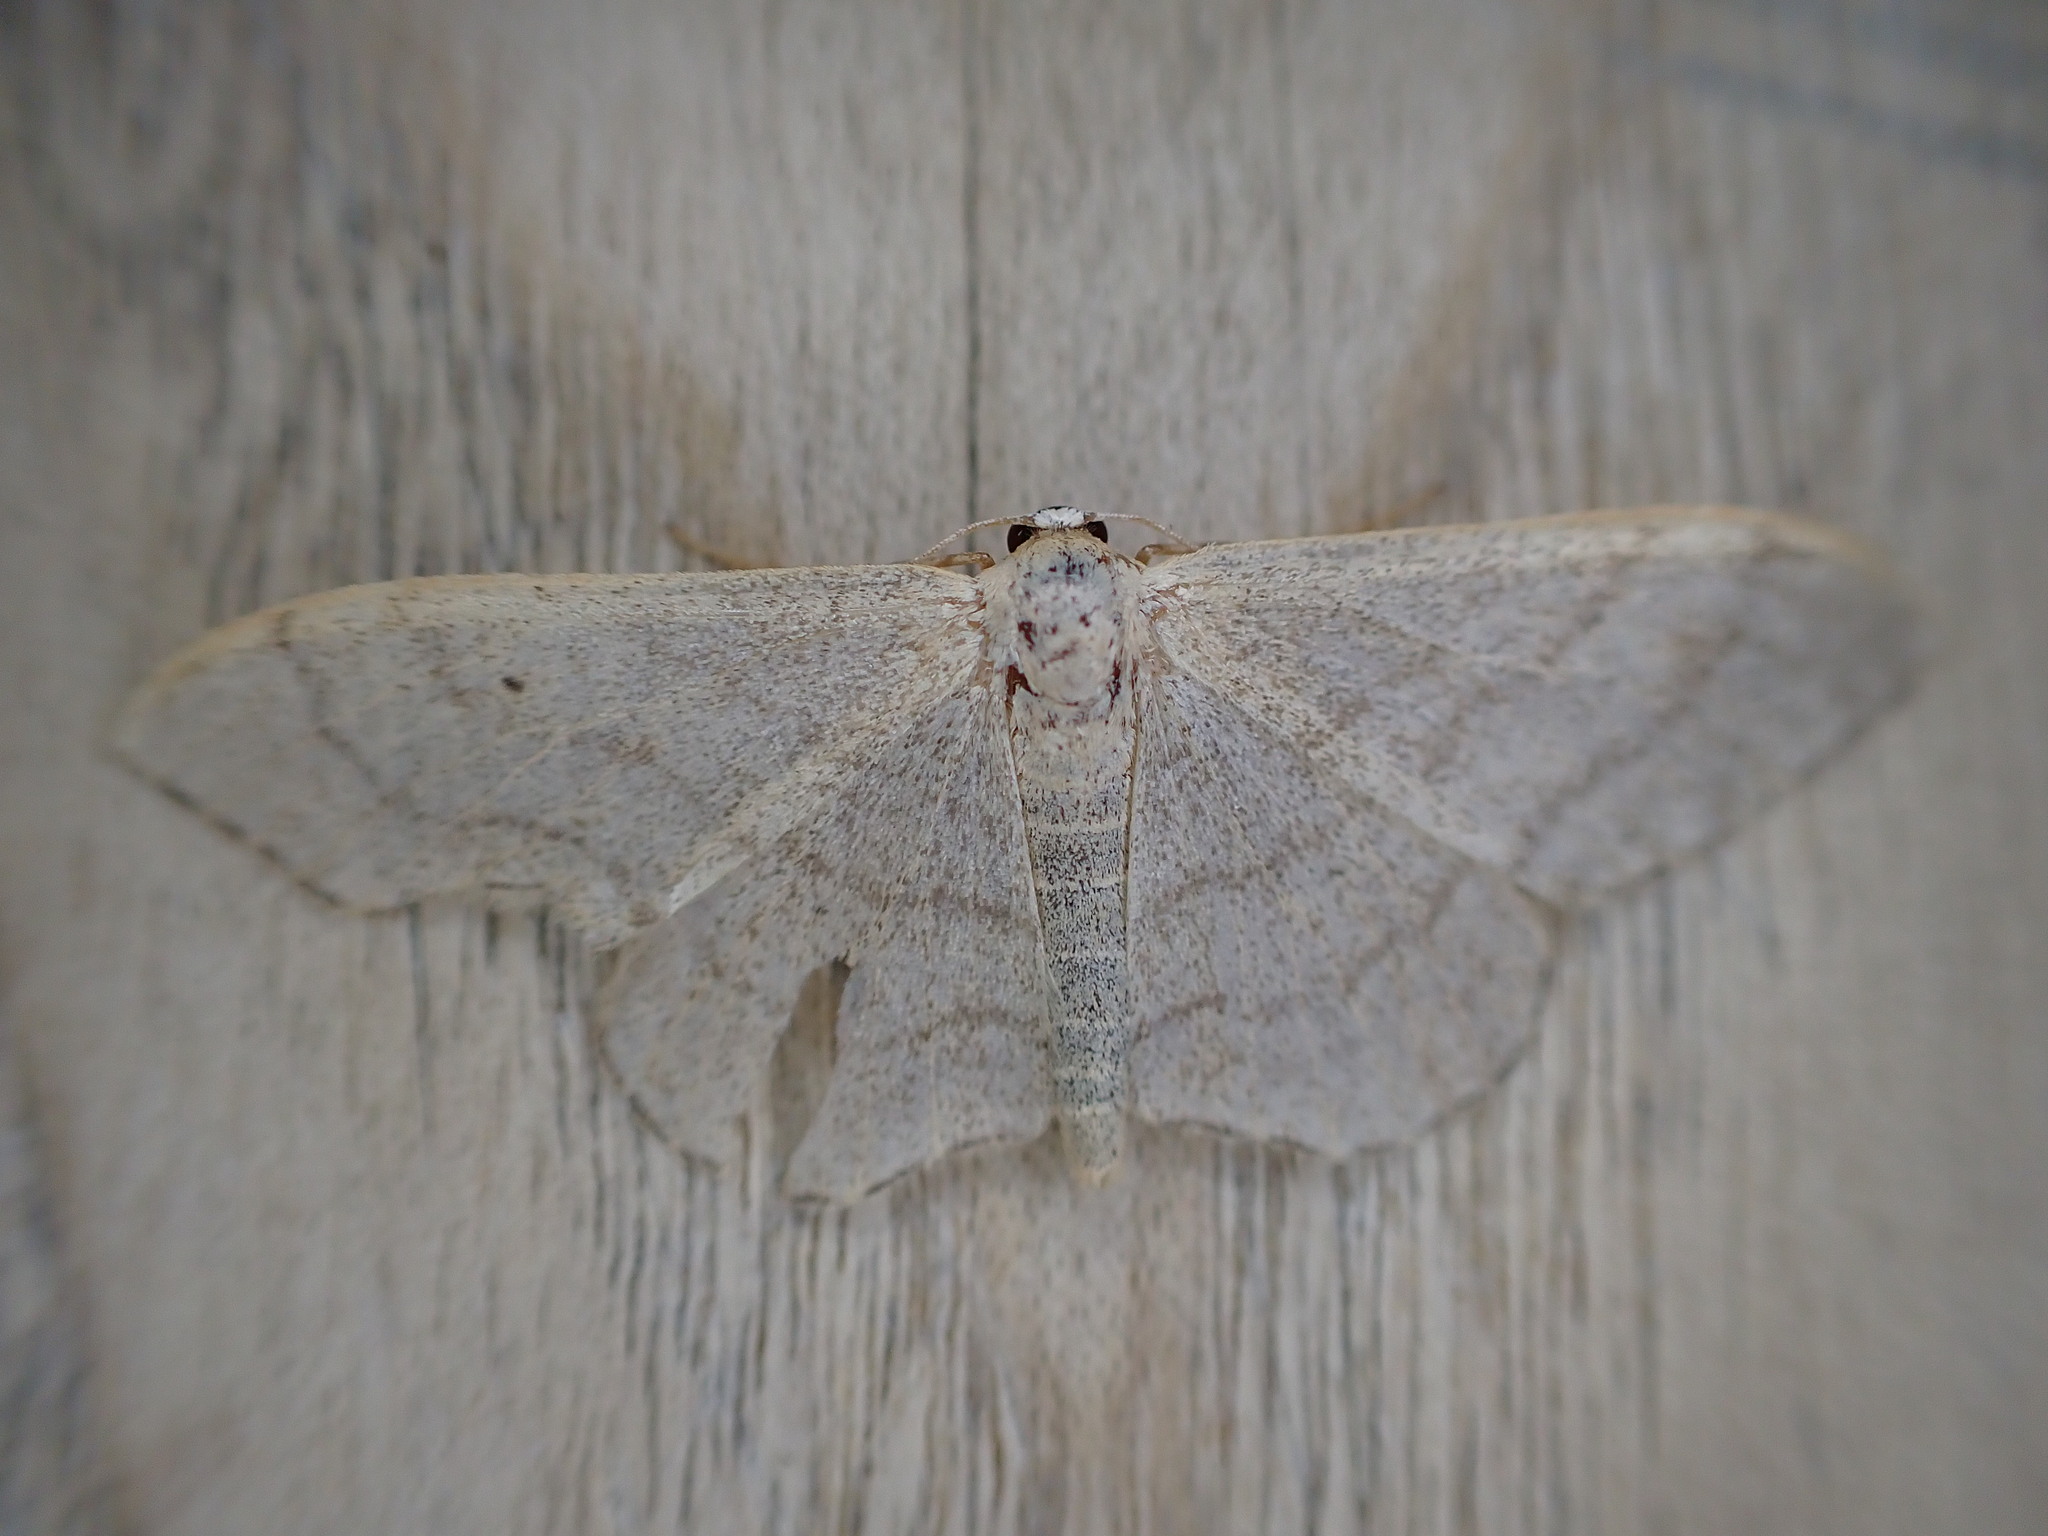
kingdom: Animalia
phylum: Arthropoda
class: Insecta
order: Lepidoptera
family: Geometridae
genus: Idaea
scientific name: Idaea aversata
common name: Riband wave
